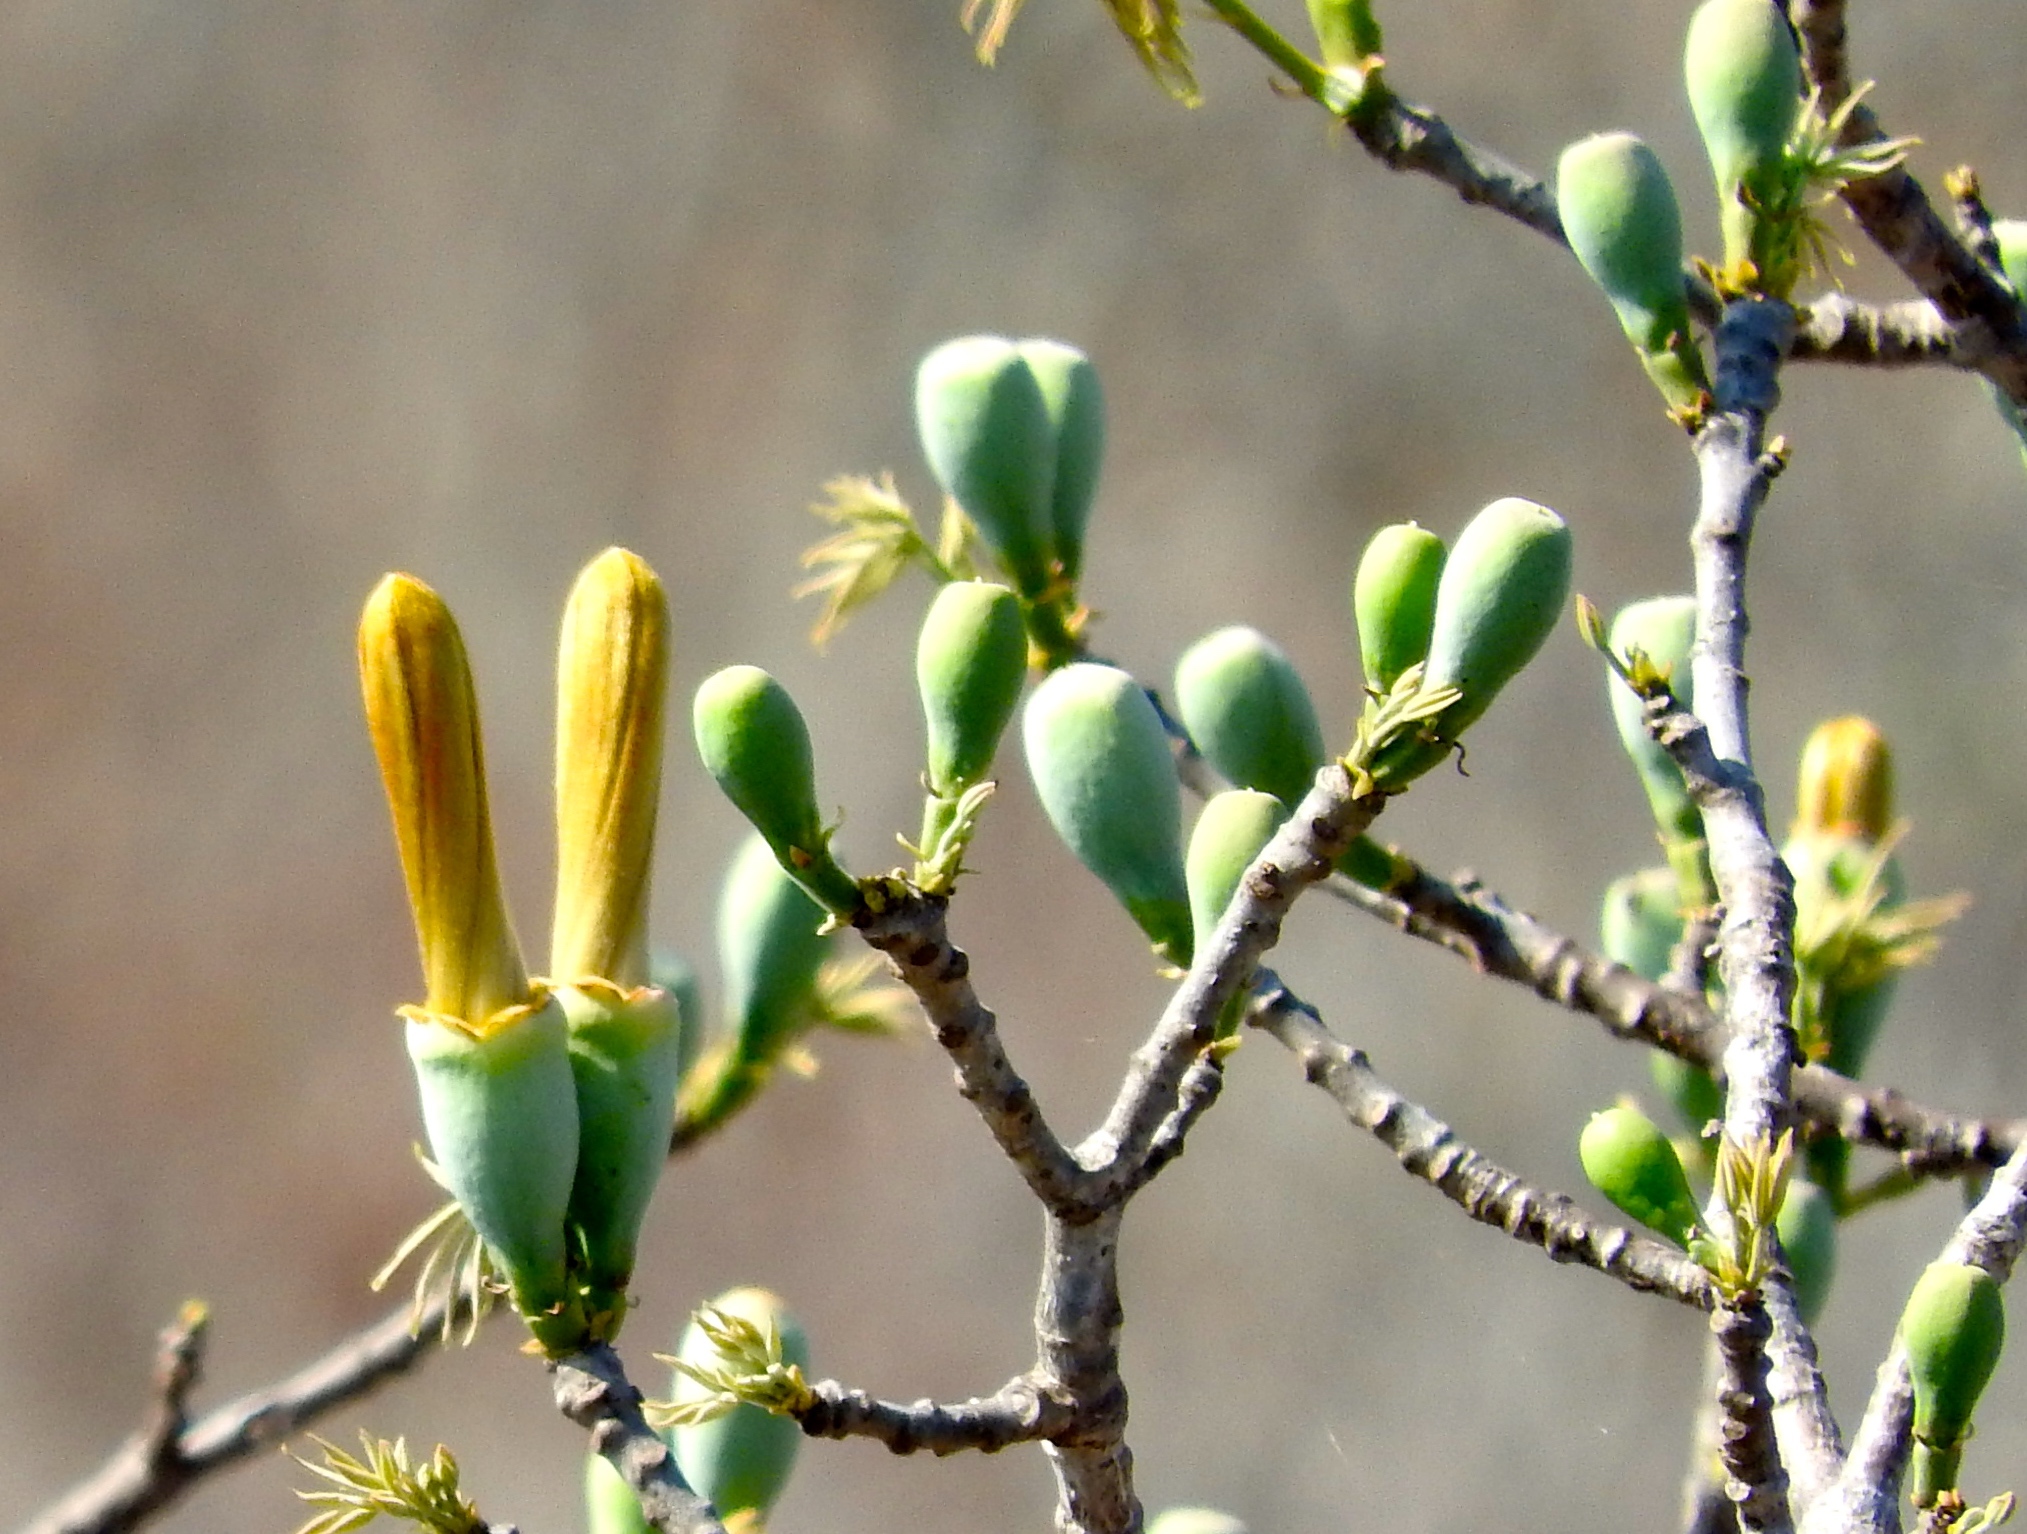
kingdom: Plantae
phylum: Tracheophyta
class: Magnoliopsida
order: Malvales
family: Malvaceae
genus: Ceiba
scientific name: Ceiba aesculifolia
